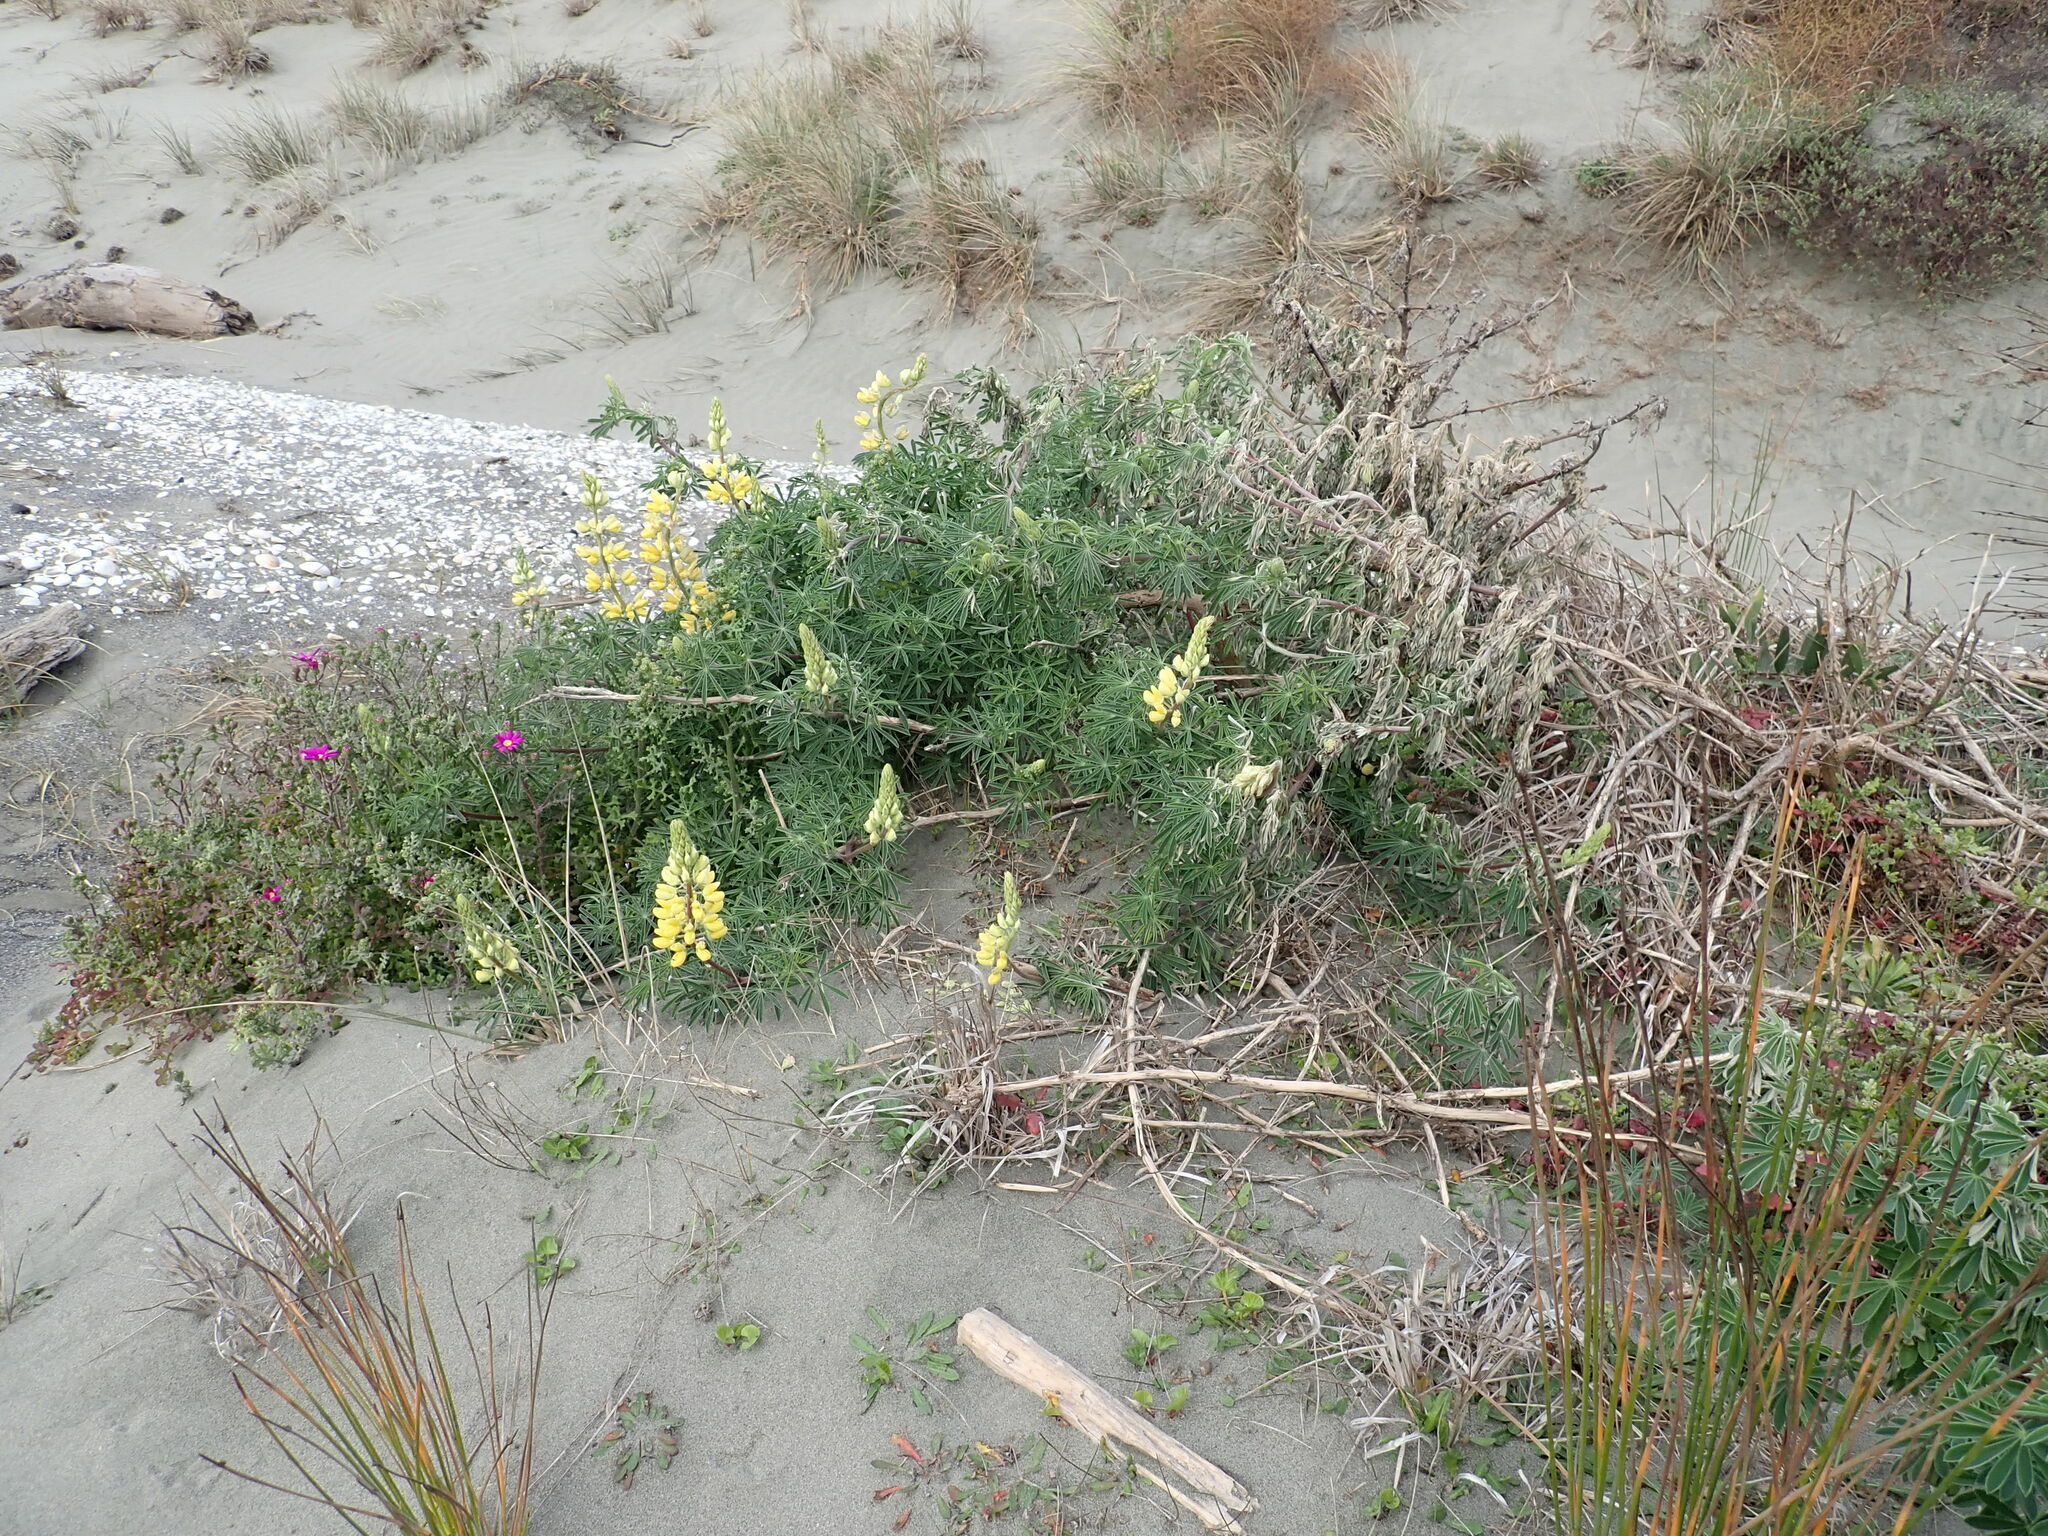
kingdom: Plantae
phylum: Tracheophyta
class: Magnoliopsida
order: Fabales
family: Fabaceae
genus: Lupinus
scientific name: Lupinus arboreus
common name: Yellow bush lupine
